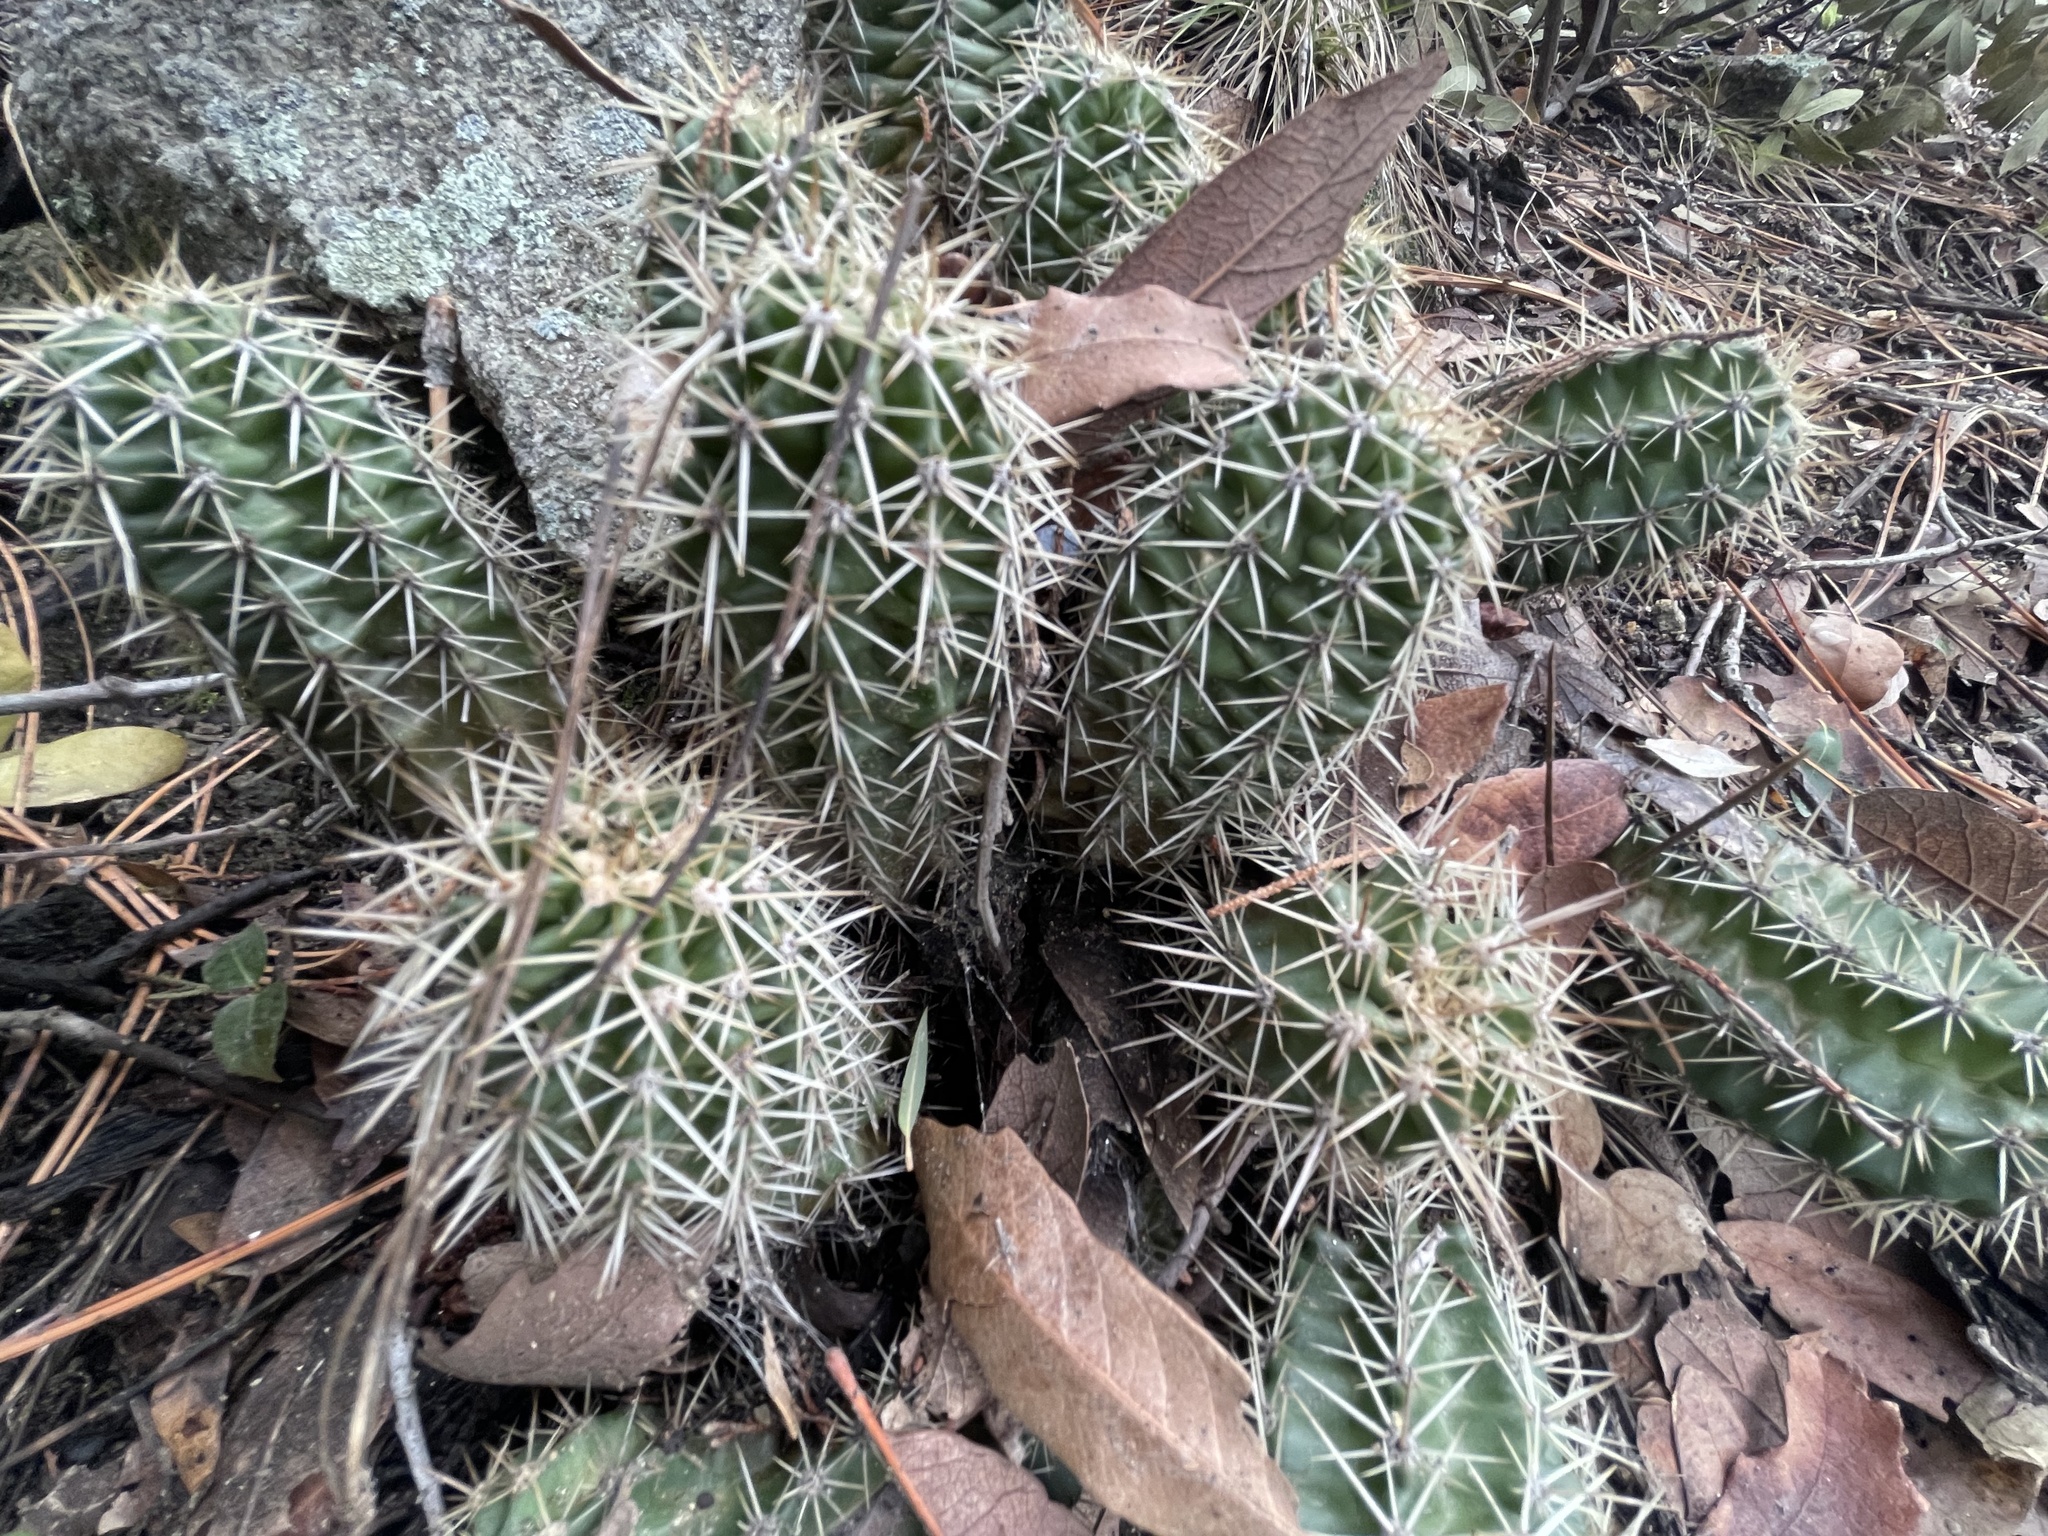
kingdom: Plantae
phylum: Tracheophyta
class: Magnoliopsida
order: Caryophyllales
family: Cactaceae
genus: Echinocereus
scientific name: Echinocereus arizonicus
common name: Arizona hedgehog cactus
